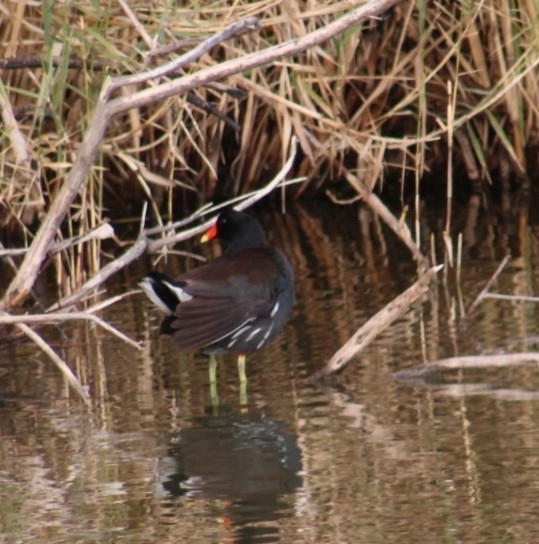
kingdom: Animalia
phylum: Chordata
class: Aves
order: Gruiformes
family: Rallidae
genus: Gallinula
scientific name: Gallinula chloropus
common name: Common moorhen
